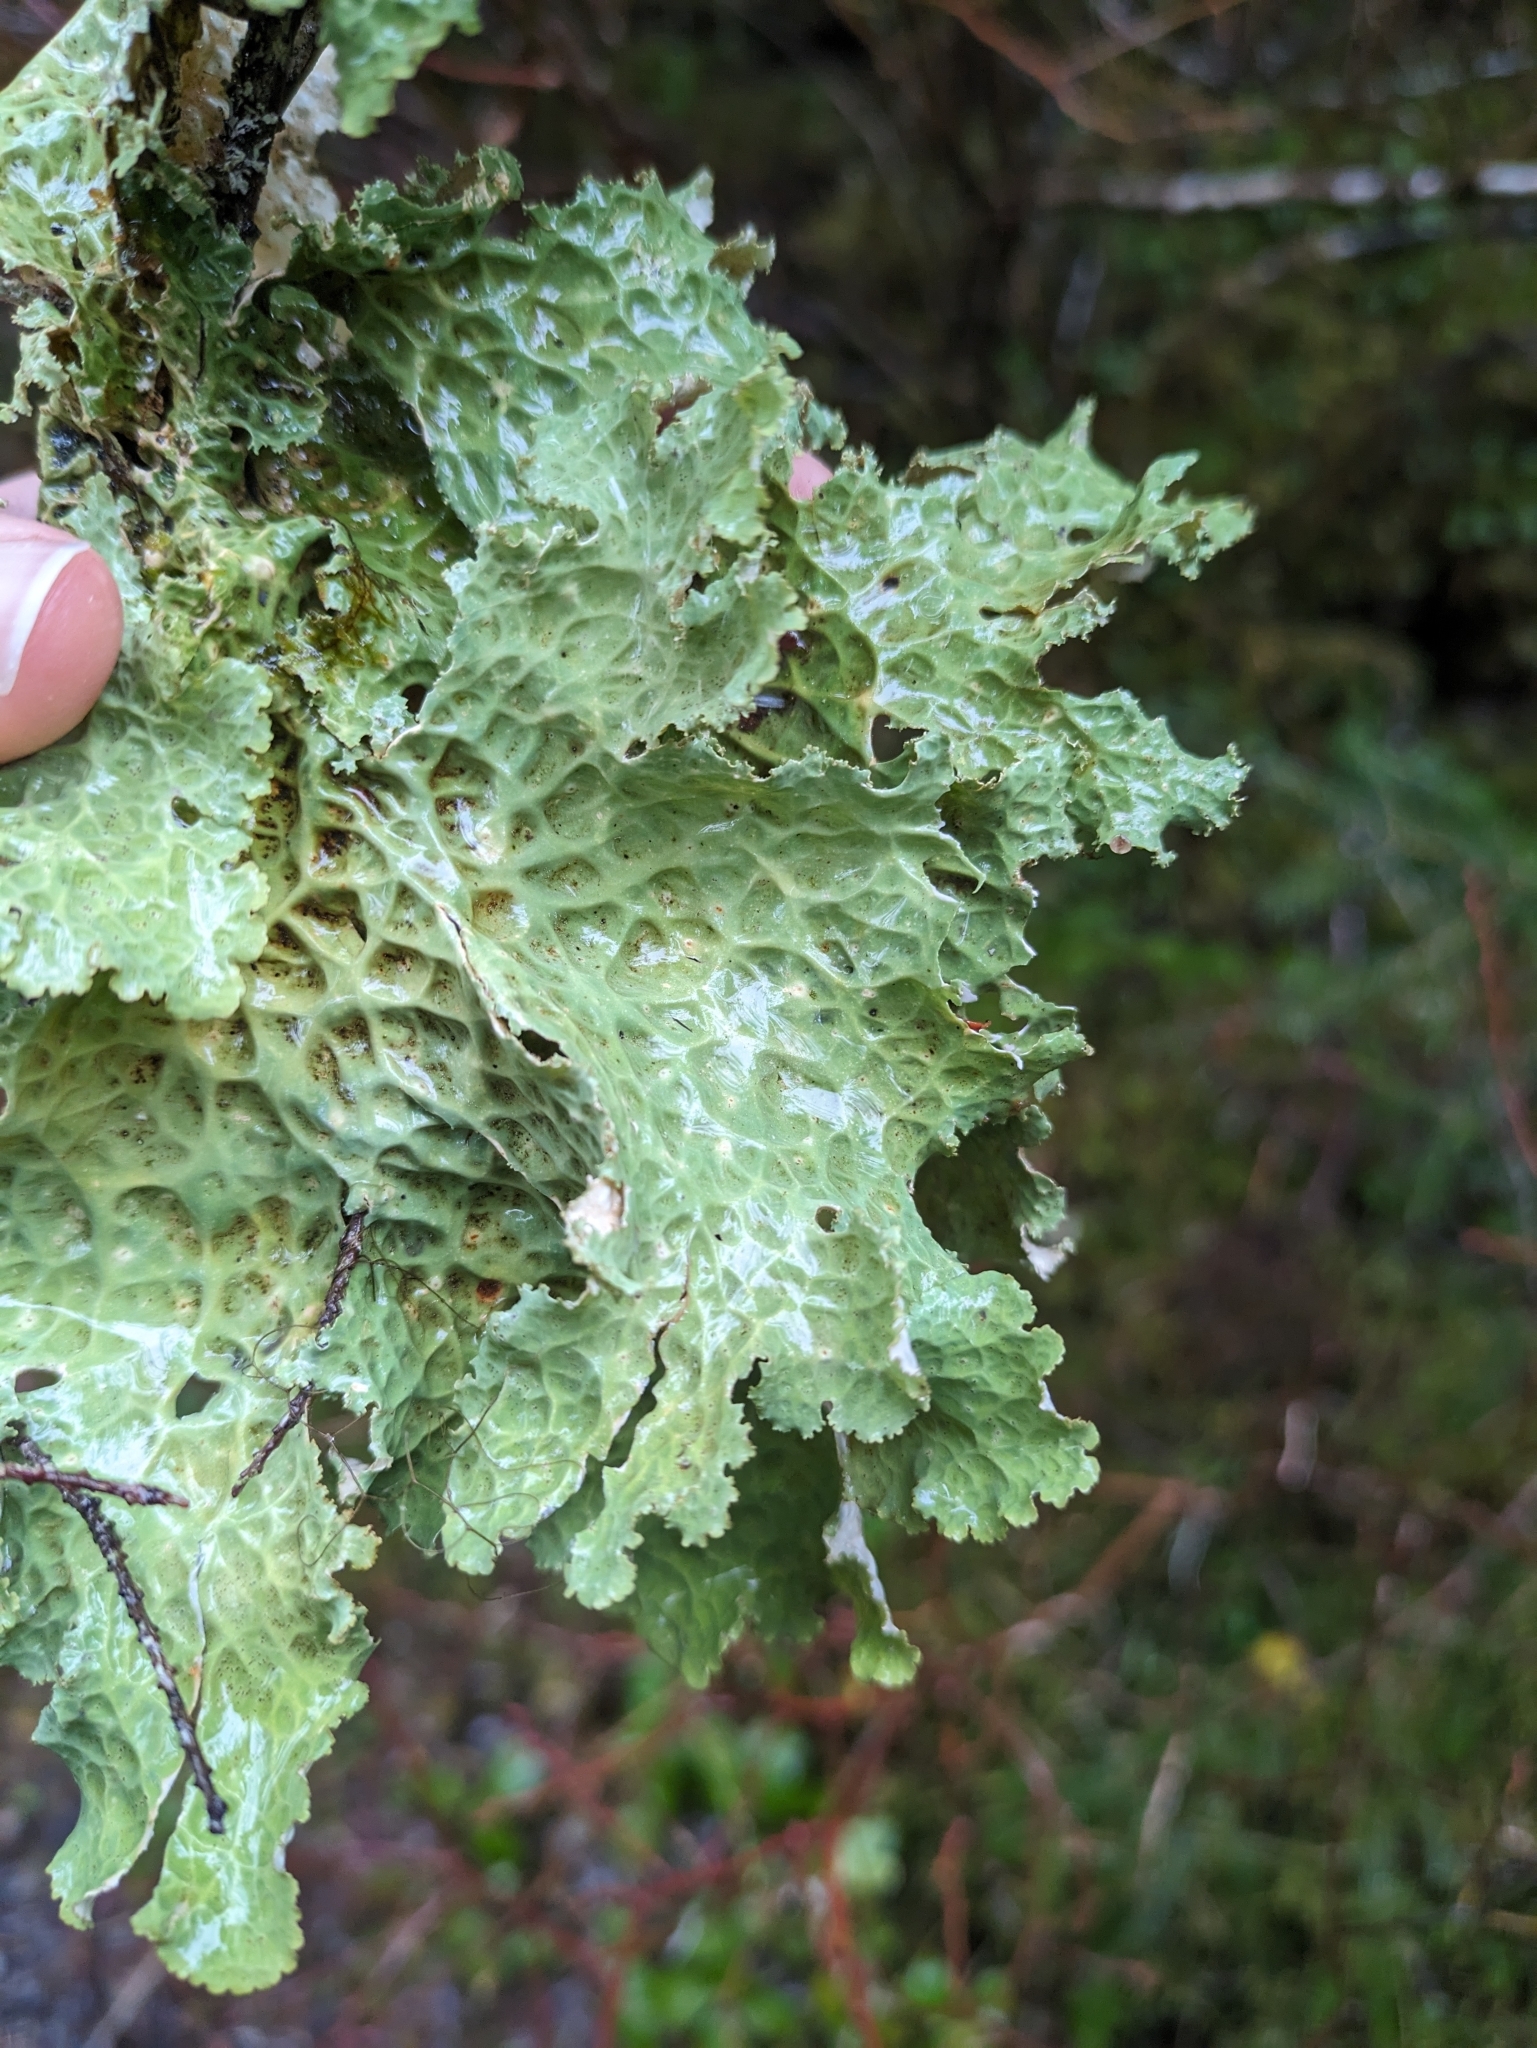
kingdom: Fungi
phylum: Ascomycota
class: Lecanoromycetes
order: Peltigerales
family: Lobariaceae
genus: Lobaria
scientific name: Lobaria oregana
